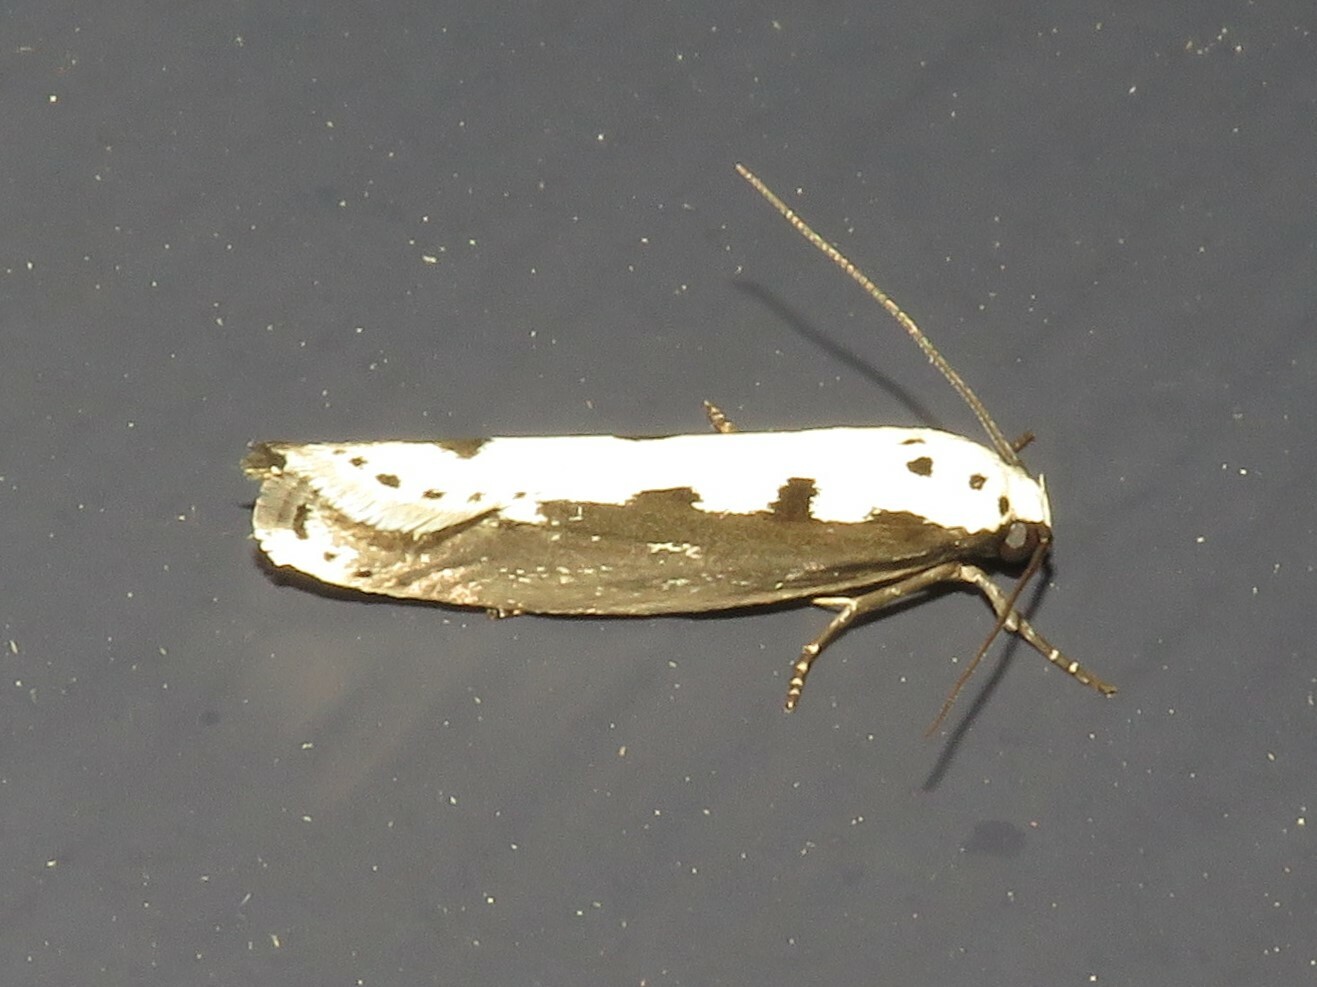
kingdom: Animalia
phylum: Arthropoda
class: Insecta
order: Lepidoptera
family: Ethmiidae
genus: Ethmia
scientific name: Ethmia bipunctella
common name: Bordered ermel
